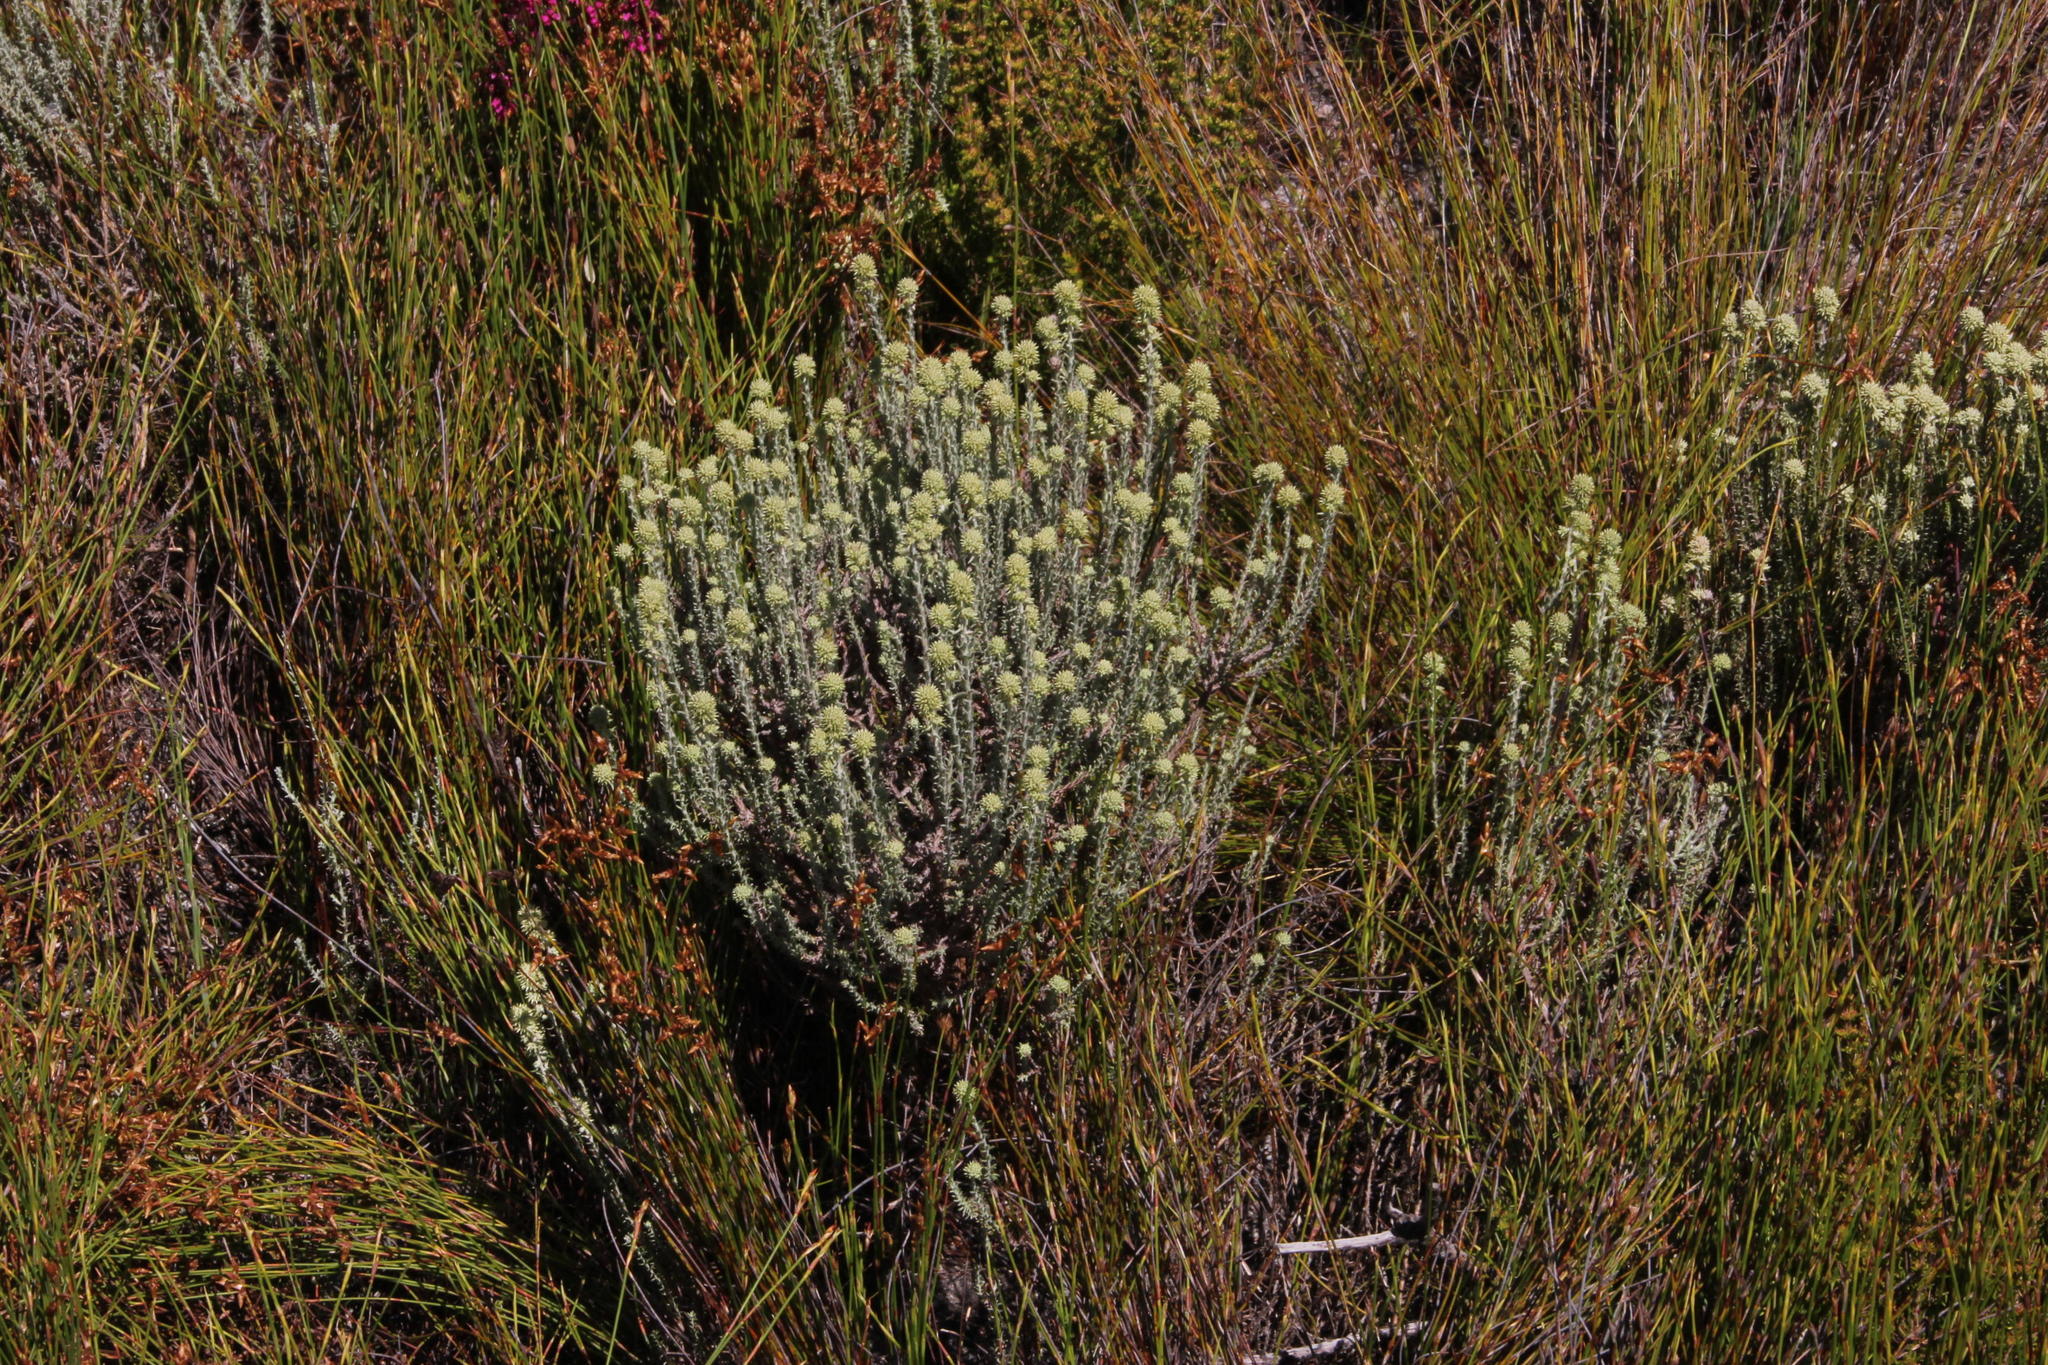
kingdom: Plantae
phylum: Tracheophyta
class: Magnoliopsida
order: Asterales
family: Asteraceae
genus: Seriphium
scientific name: Seriphium spirale
